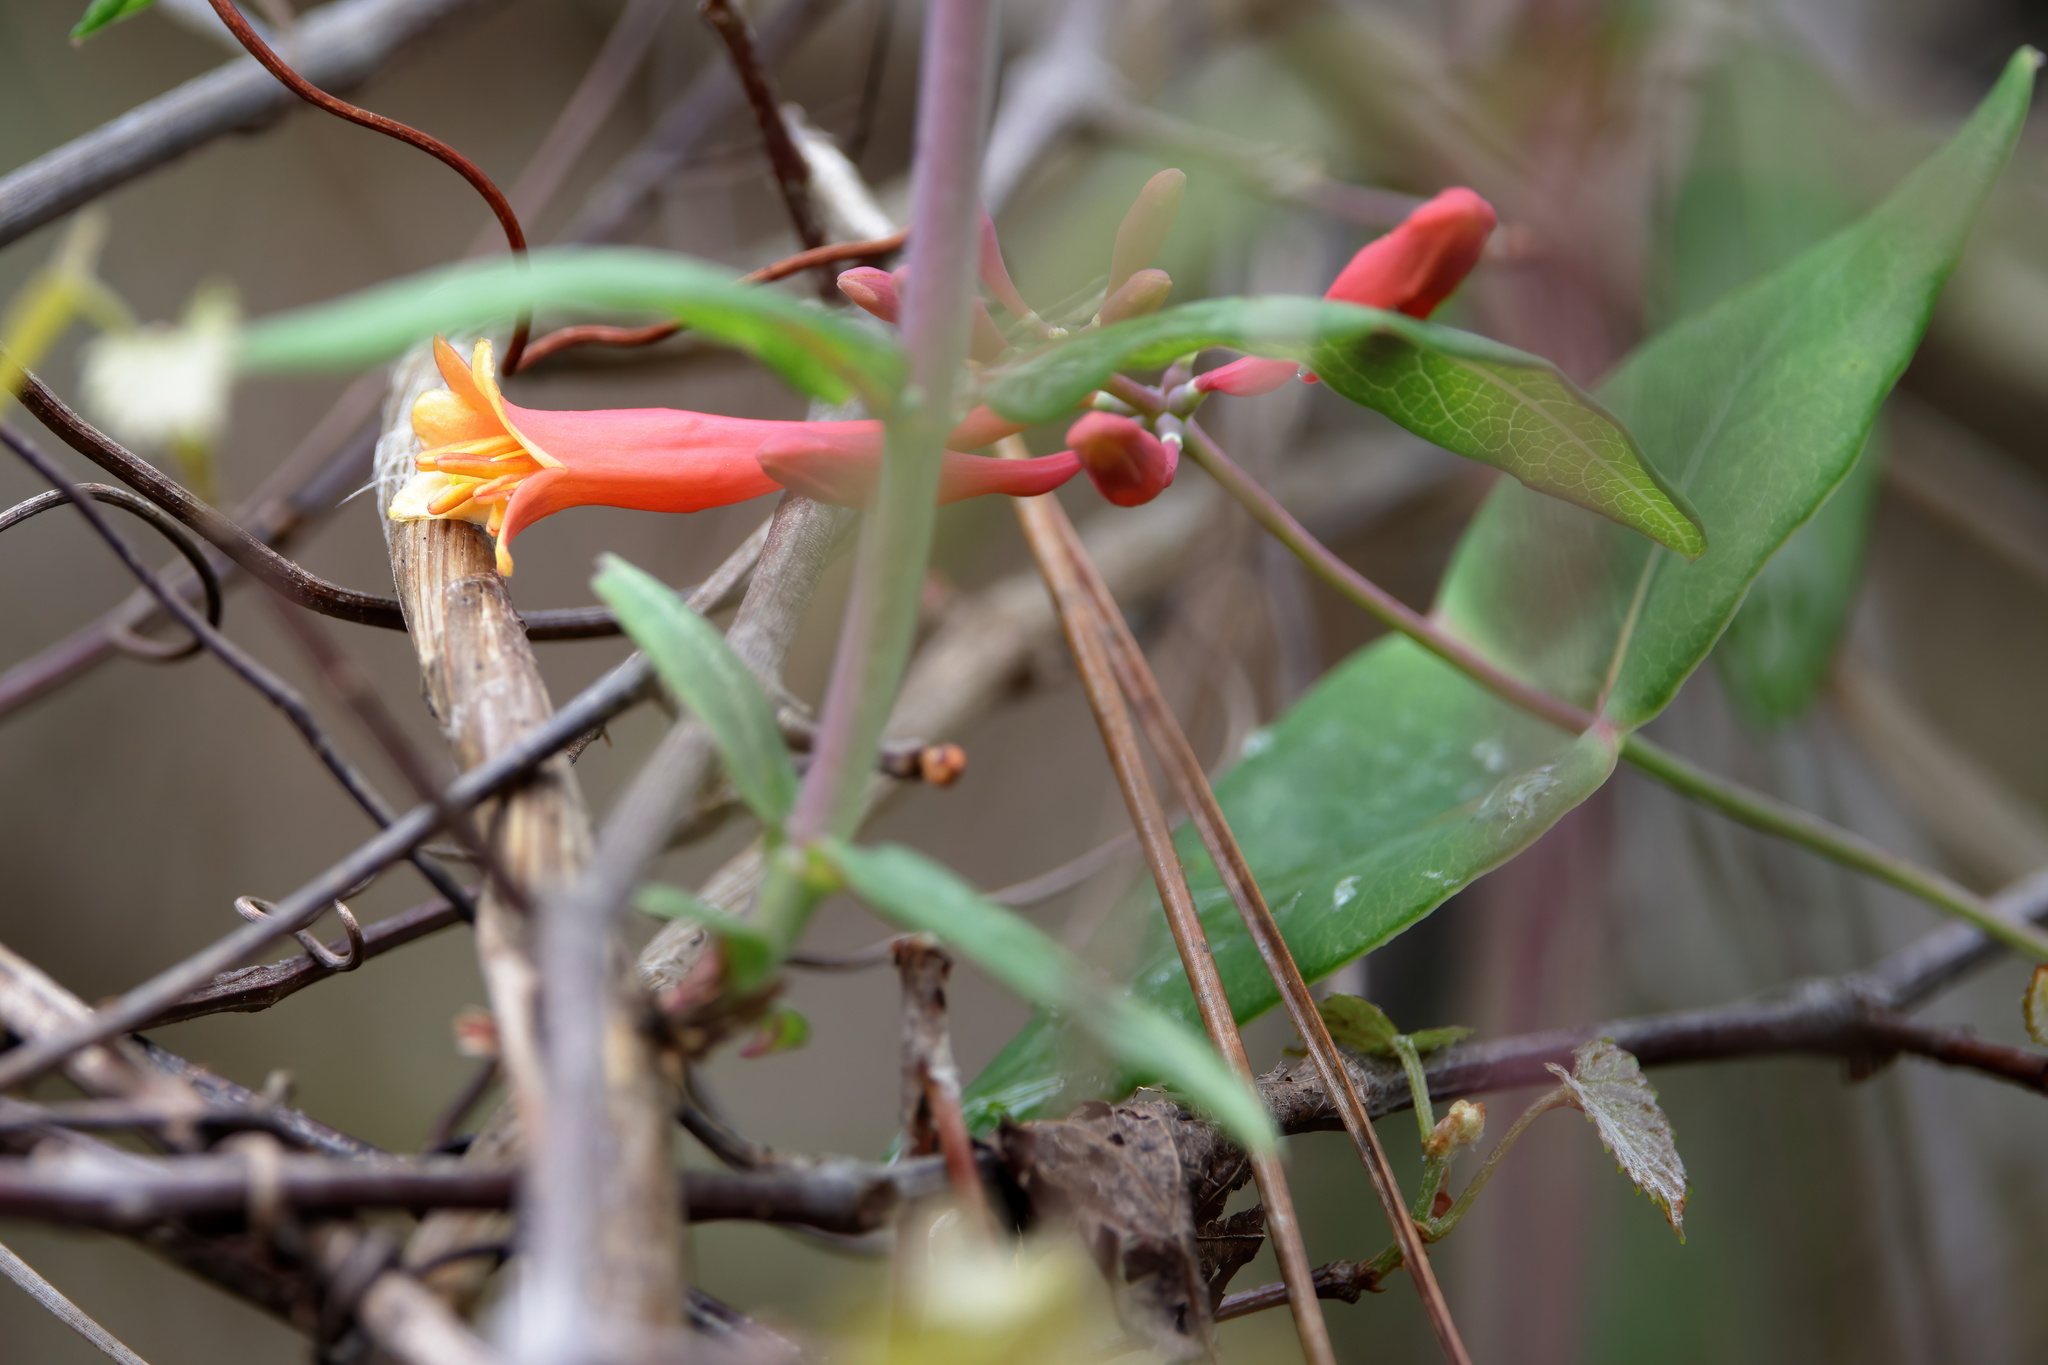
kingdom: Plantae
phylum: Tracheophyta
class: Magnoliopsida
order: Dipsacales
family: Caprifoliaceae
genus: Lonicera
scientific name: Lonicera sempervirens
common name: Coral honeysuckle
